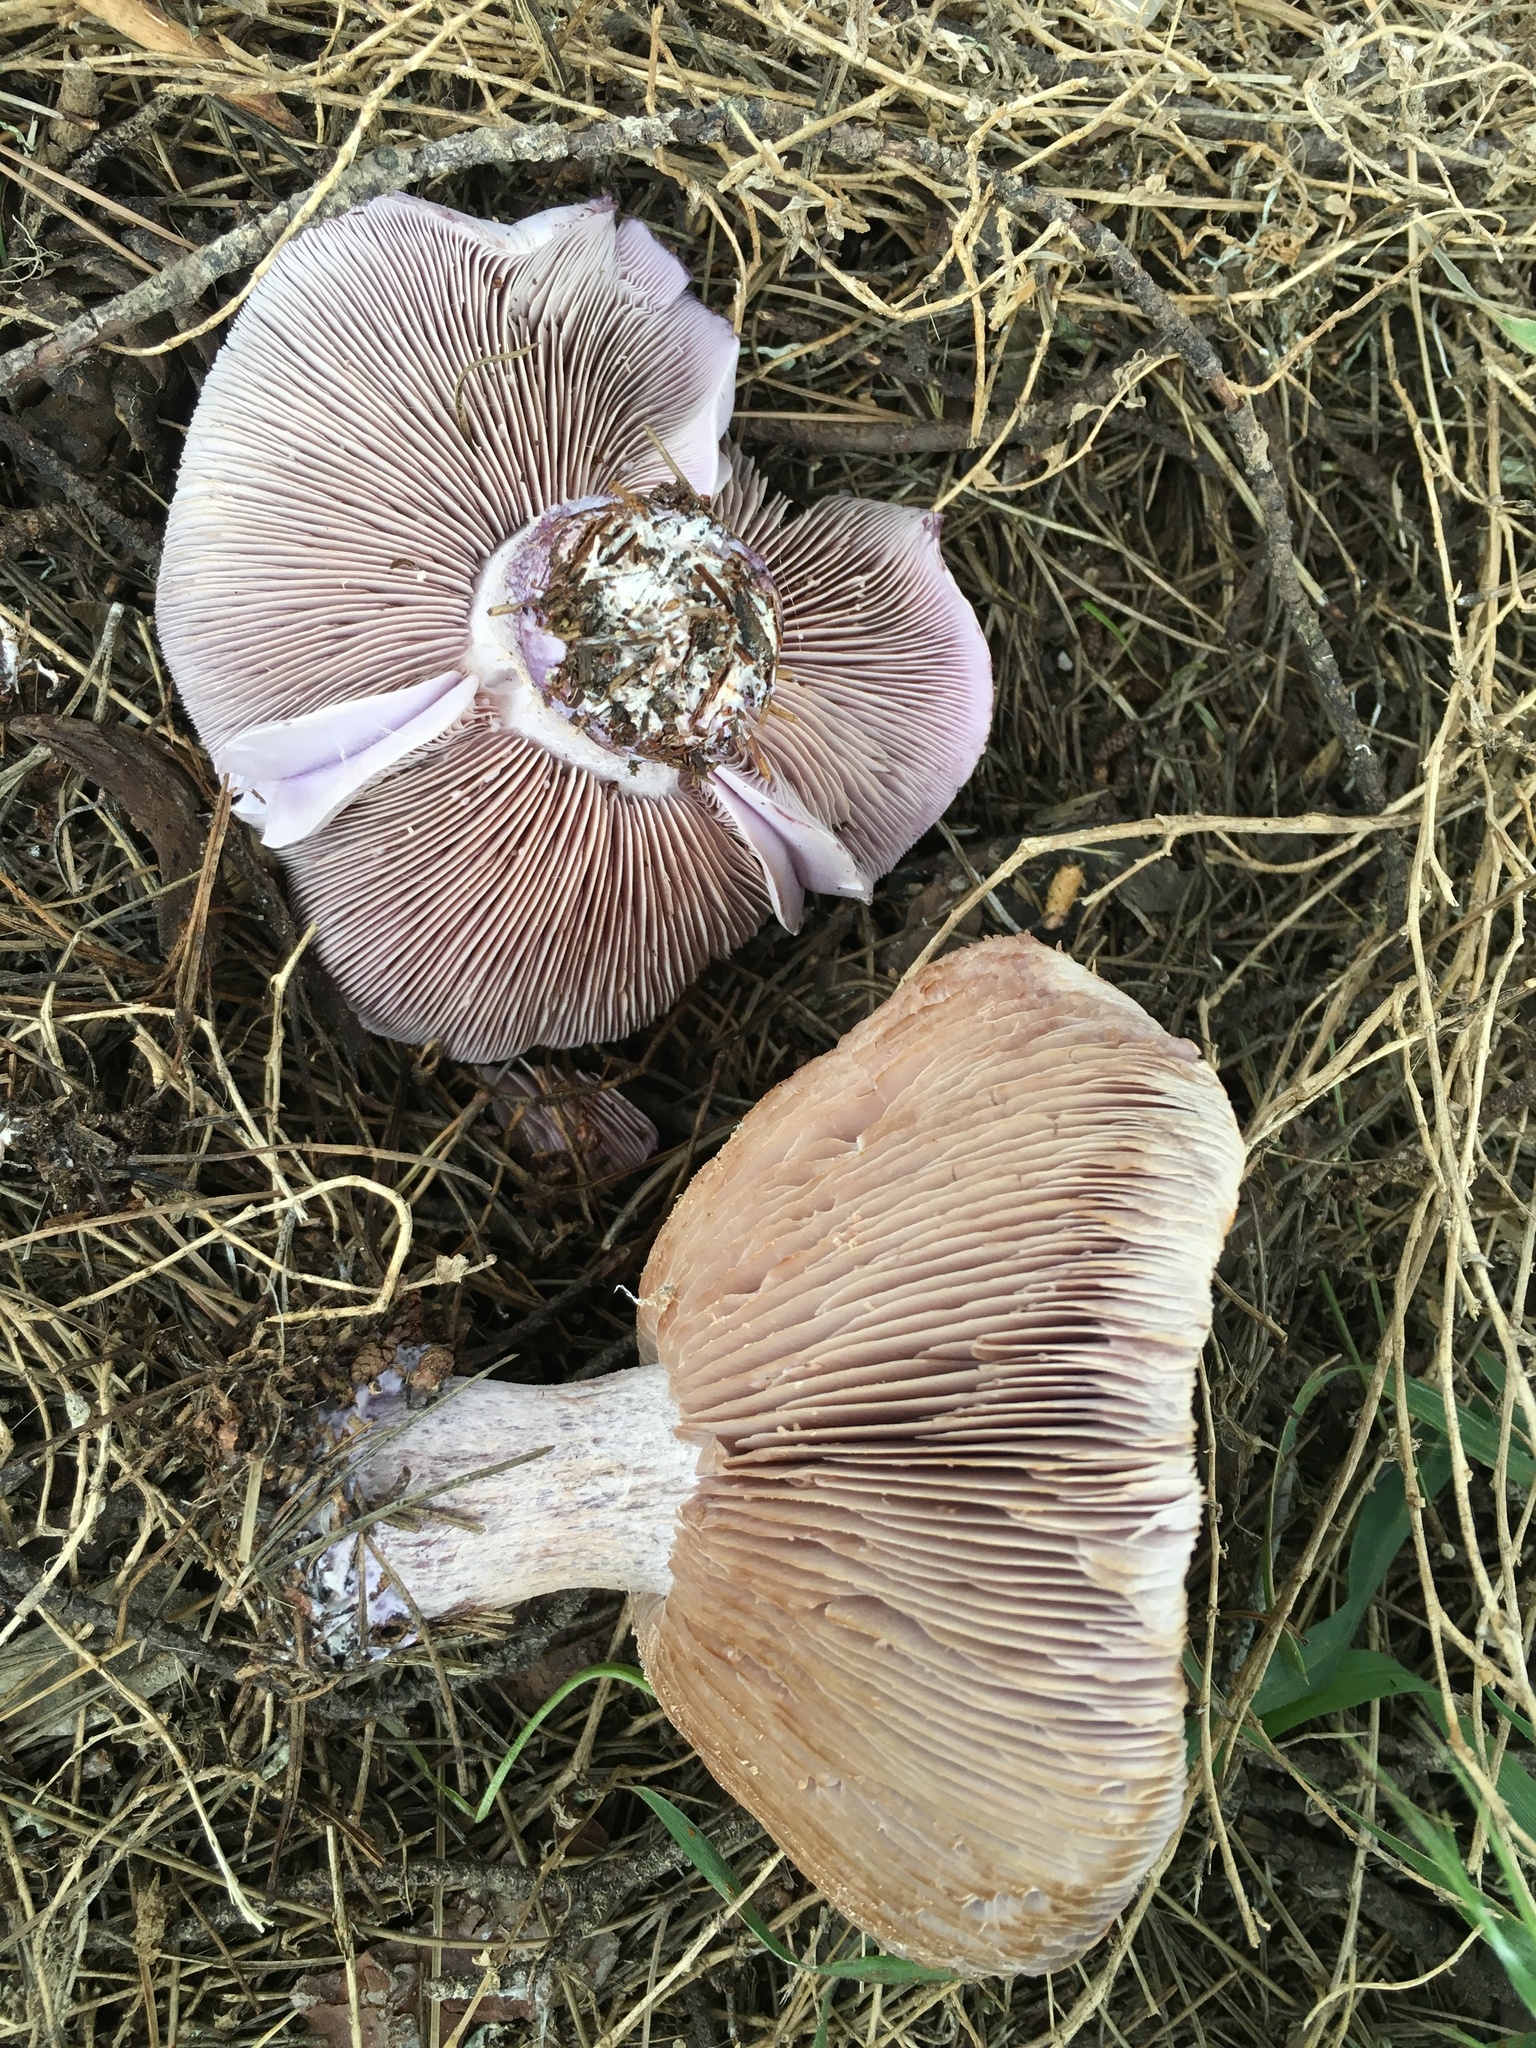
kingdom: Fungi
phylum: Basidiomycota
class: Agaricomycetes
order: Agaricales
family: Tricholomataceae
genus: Collybia
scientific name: Collybia
